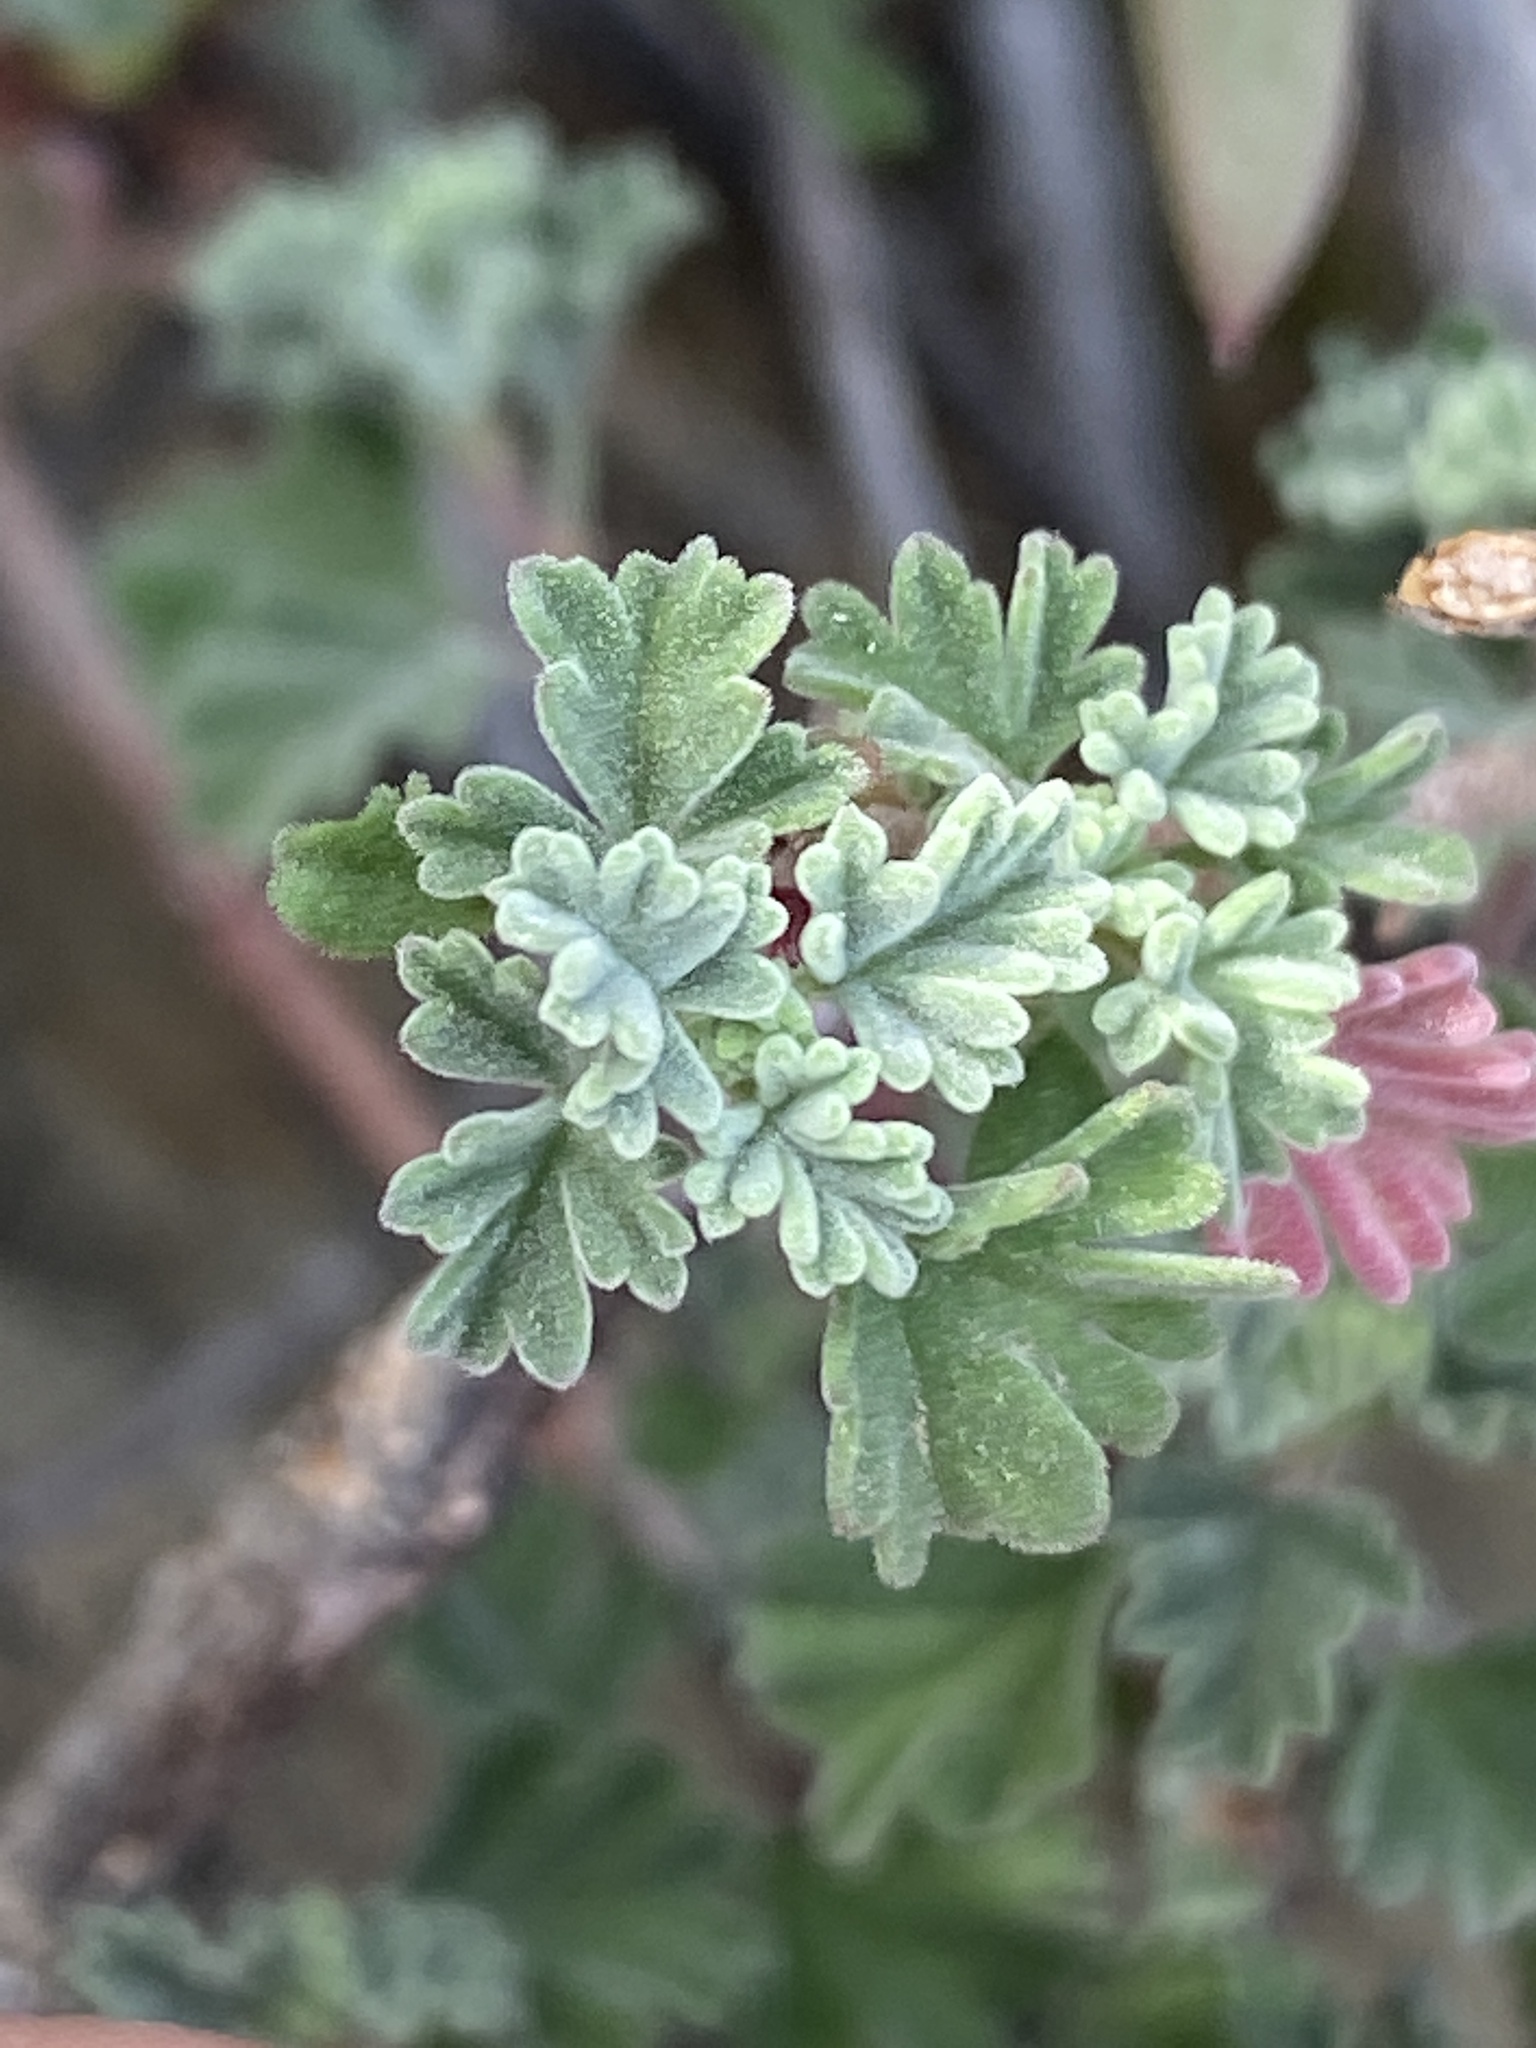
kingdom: Plantae
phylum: Tracheophyta
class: Magnoliopsida
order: Geraniales
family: Geraniaceae
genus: Pelargonium
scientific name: Pelargonium abrotanifolium
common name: Southernwood geranium
